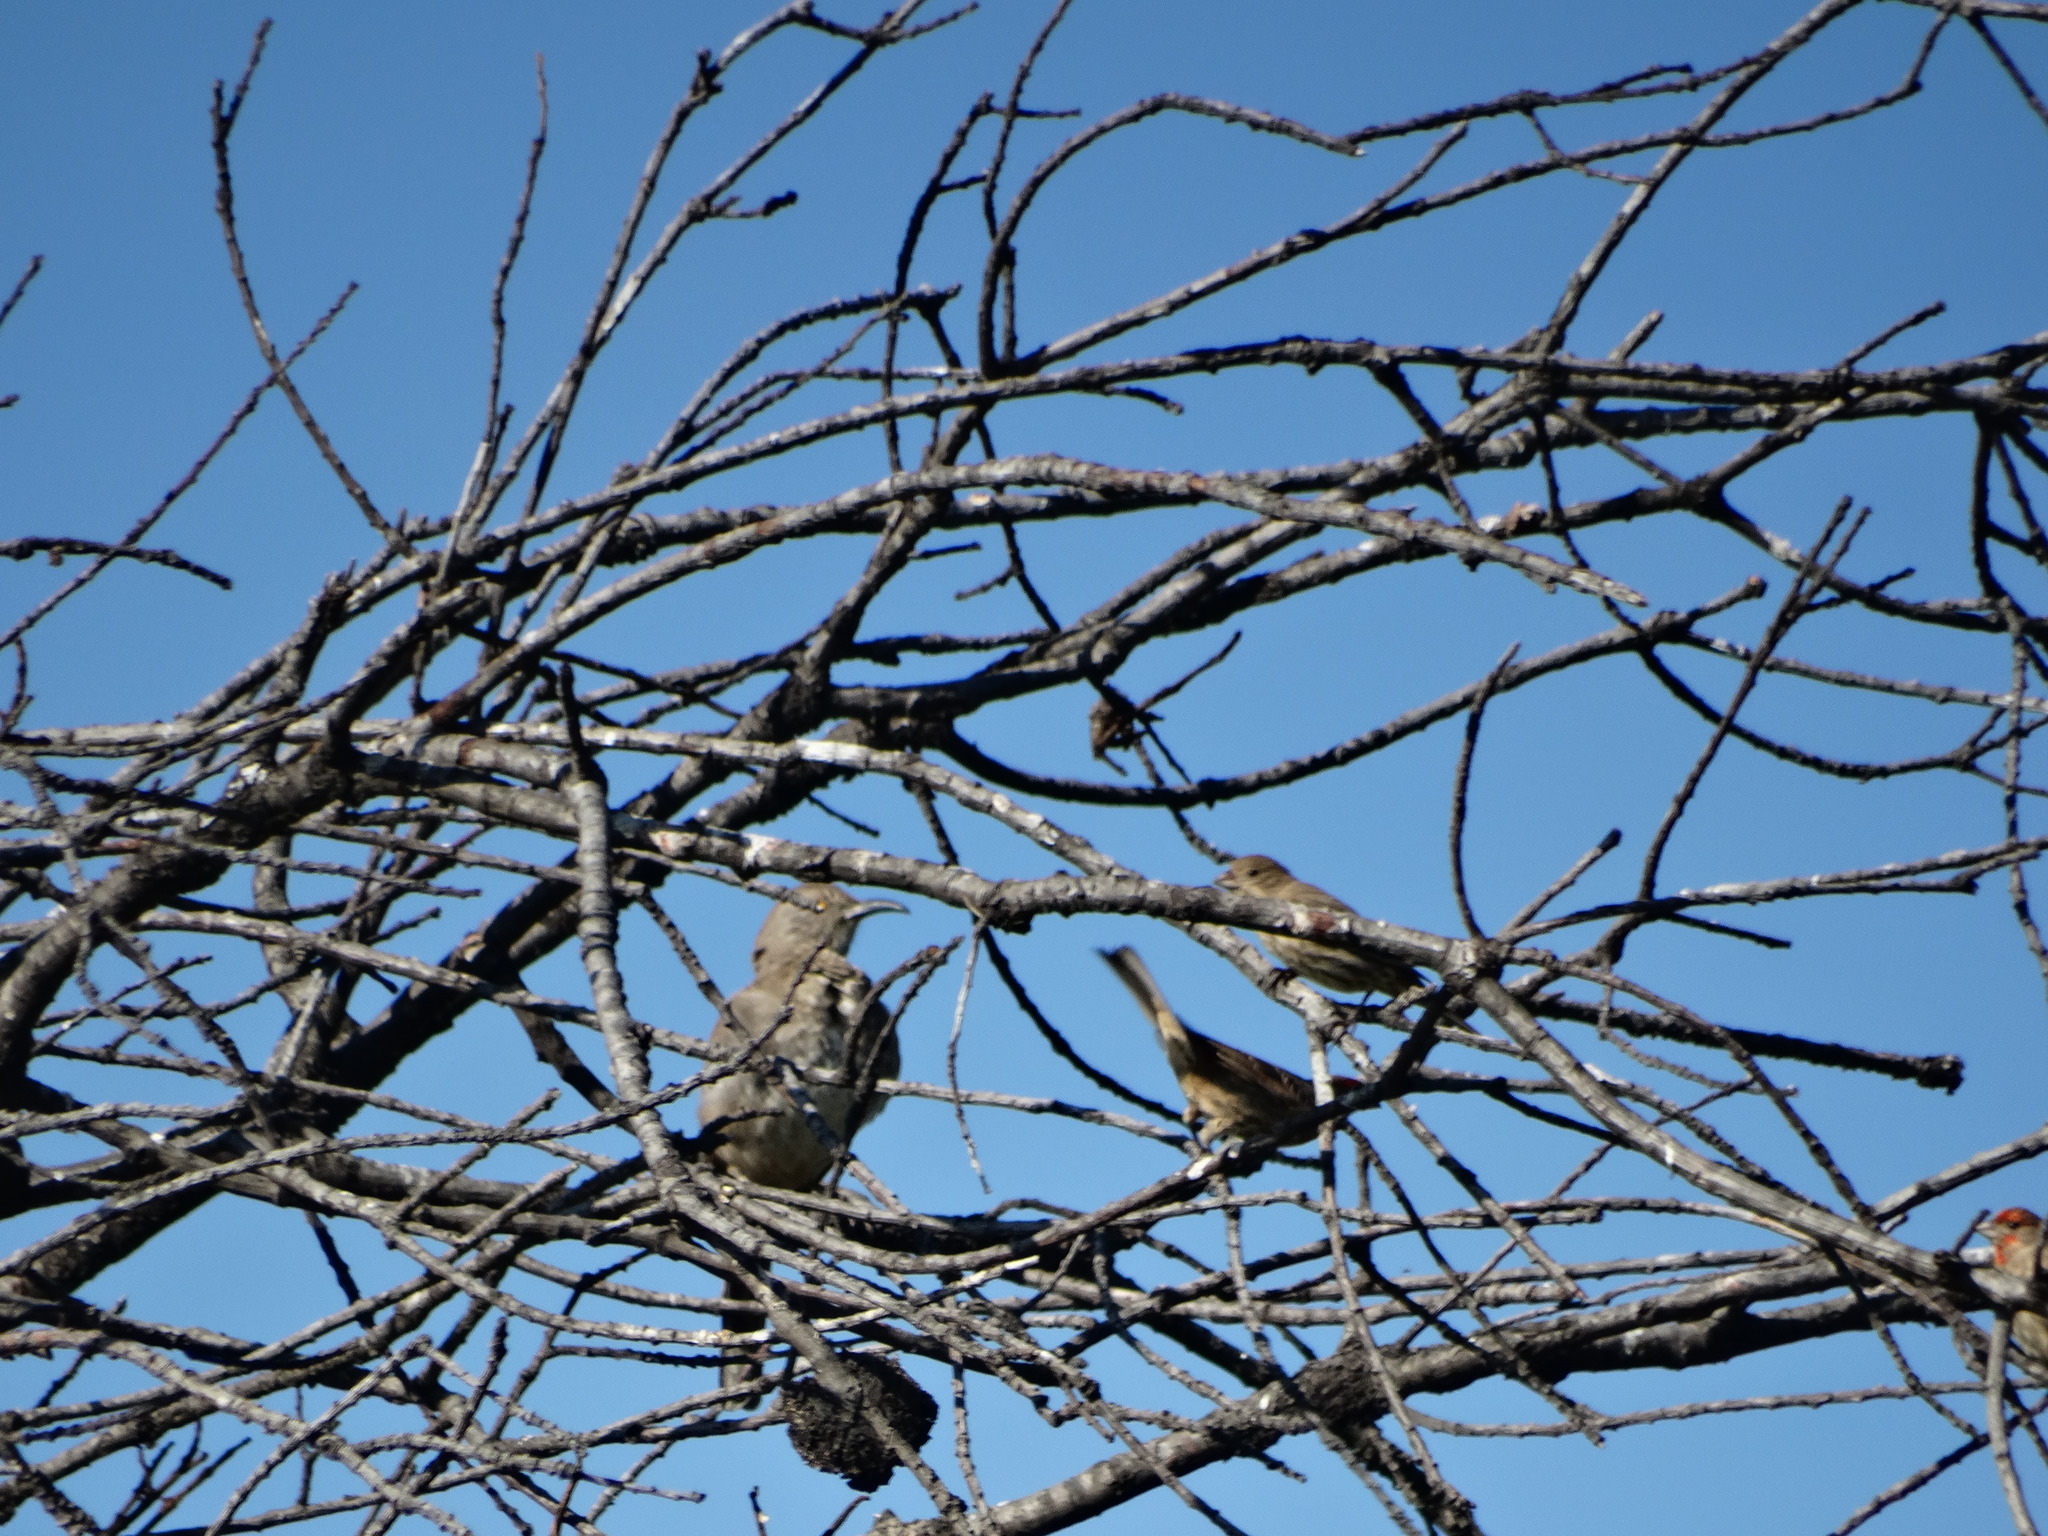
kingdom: Animalia
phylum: Chordata
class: Aves
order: Passeriformes
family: Mimidae
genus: Toxostoma
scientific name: Toxostoma curvirostre
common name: Curve-billed thrasher
